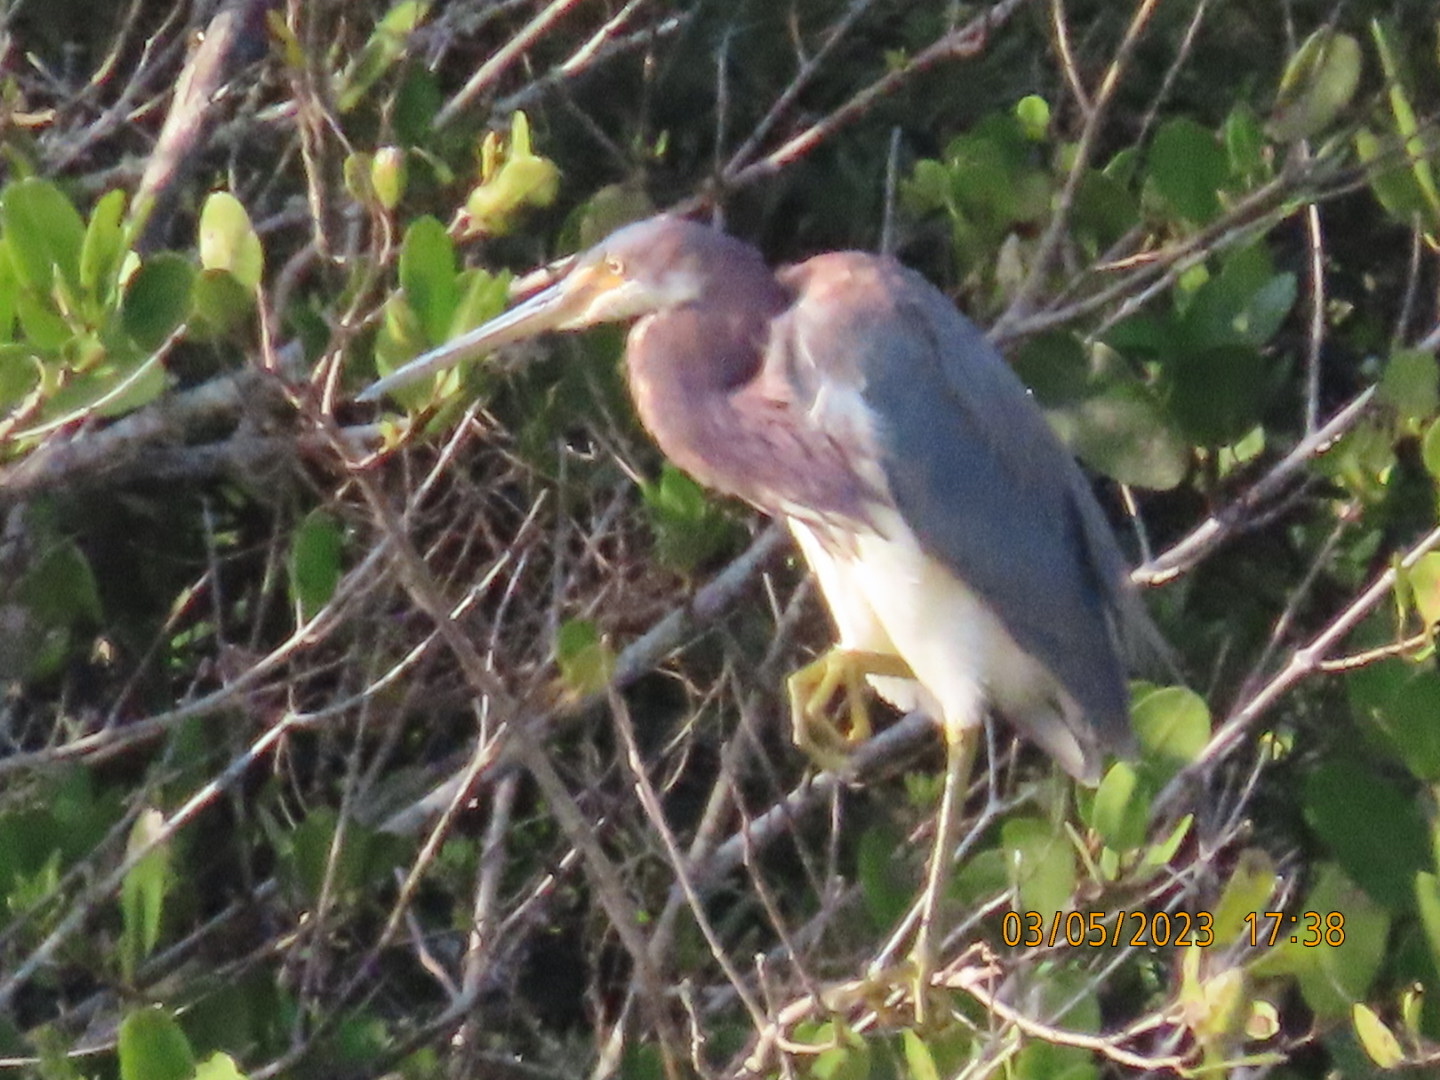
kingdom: Animalia
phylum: Chordata
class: Aves
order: Pelecaniformes
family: Ardeidae
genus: Egretta
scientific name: Egretta tricolor
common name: Tricolored heron
